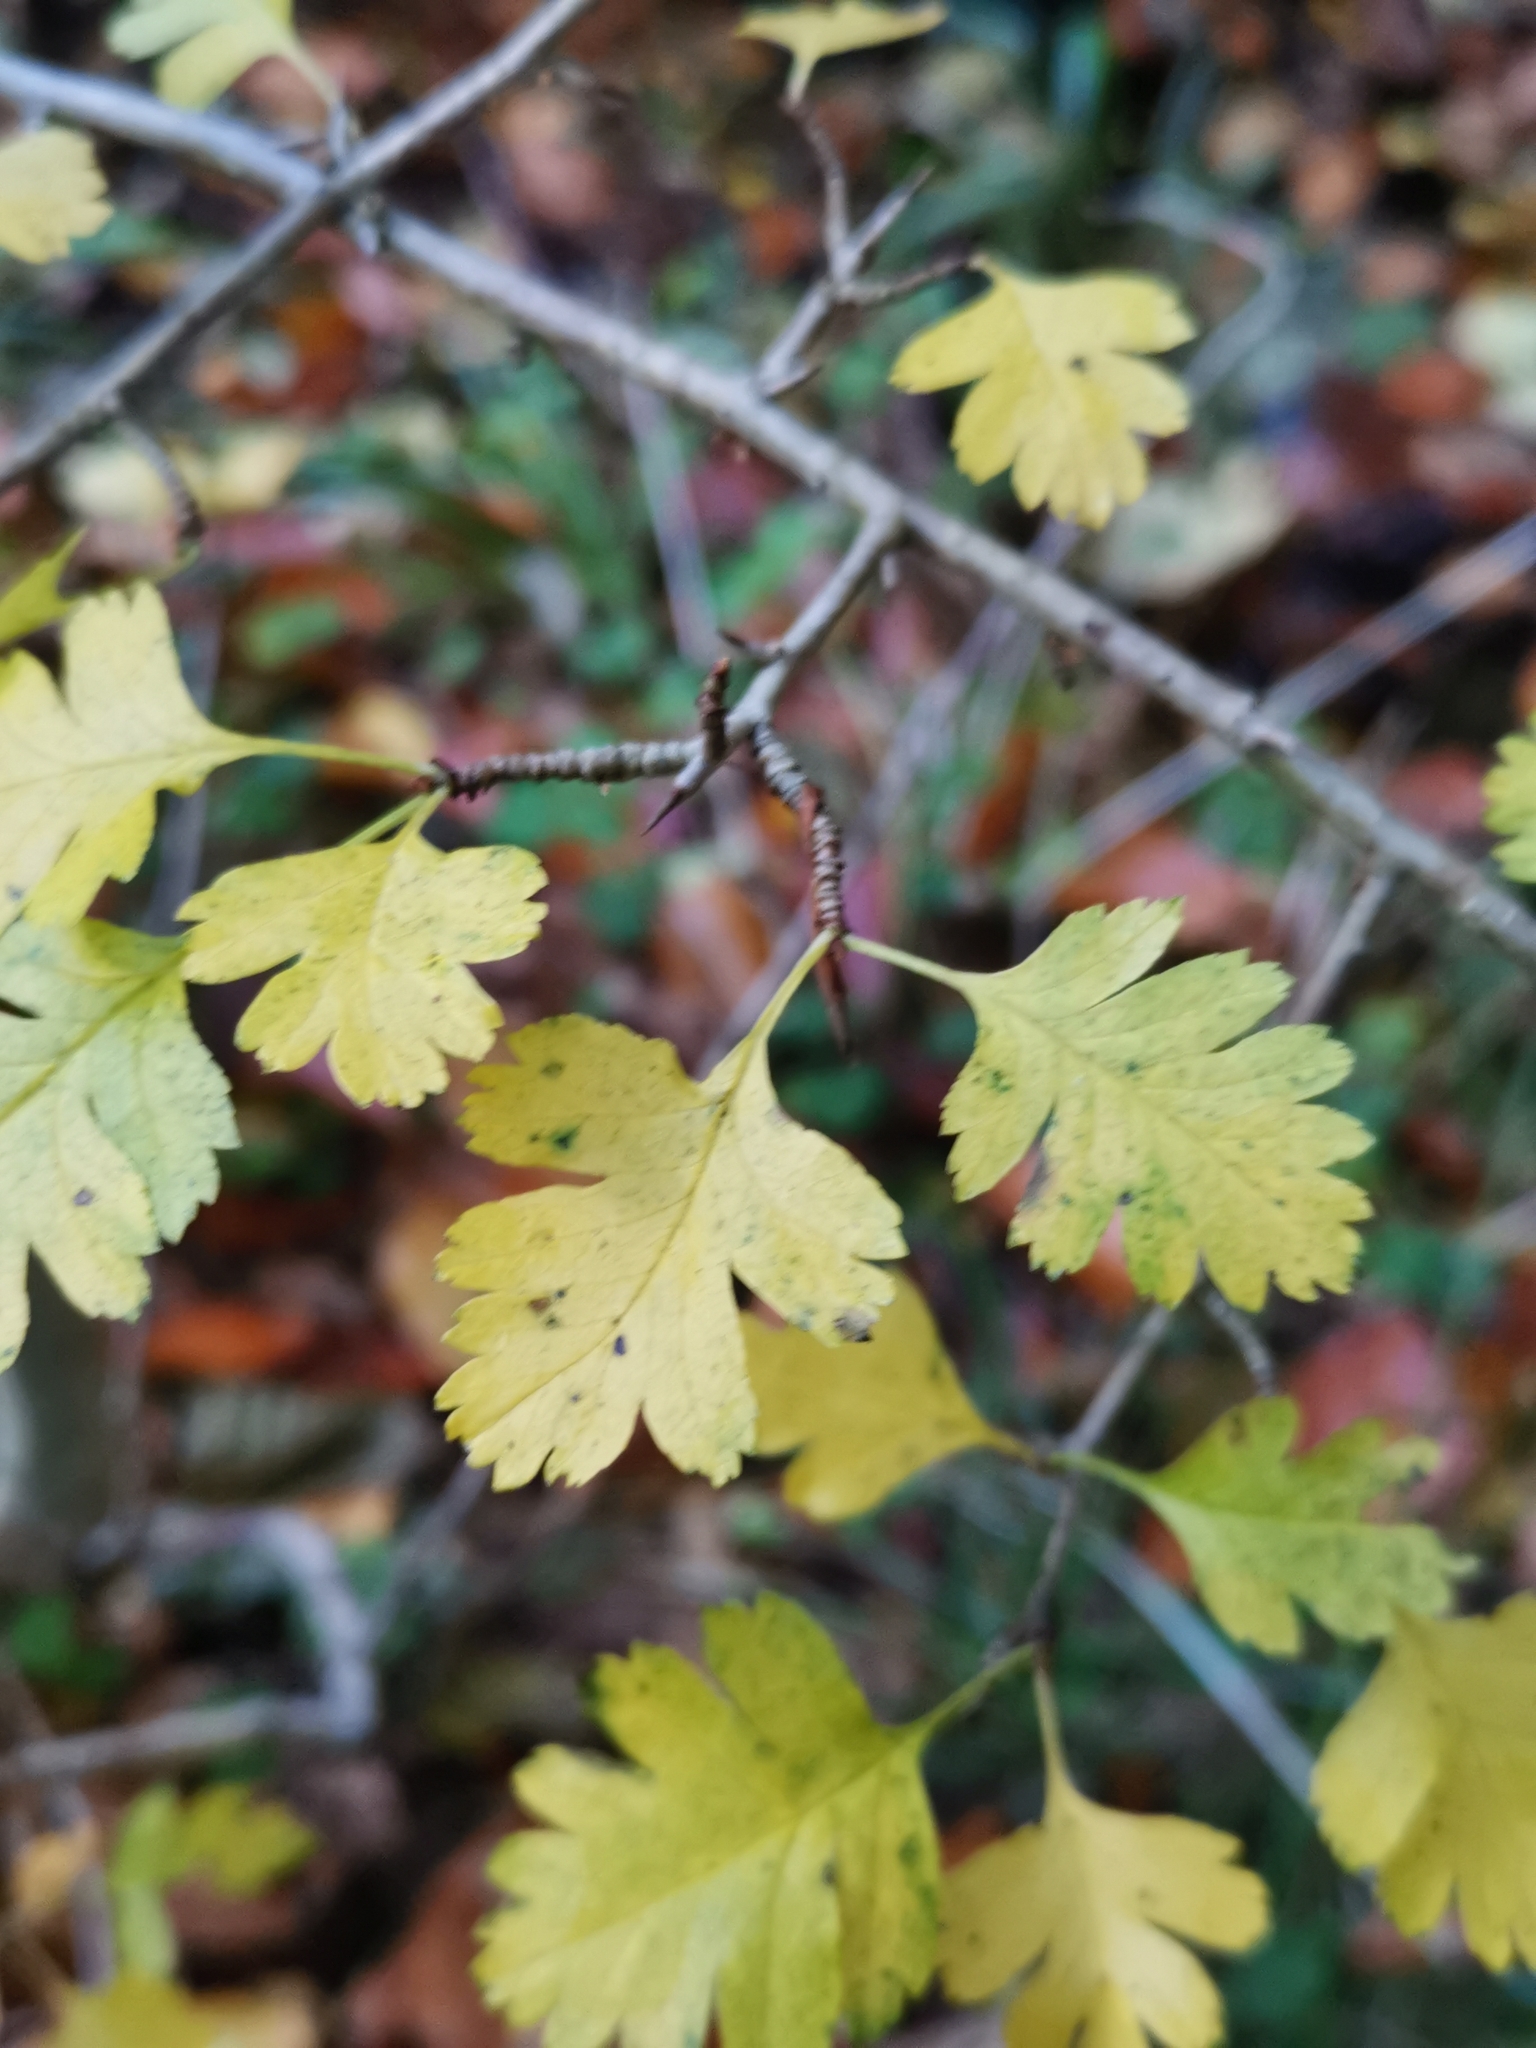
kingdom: Plantae
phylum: Tracheophyta
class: Magnoliopsida
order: Rosales
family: Rosaceae
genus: Crataegus
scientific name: Crataegus monogyna
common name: Hawthorn
